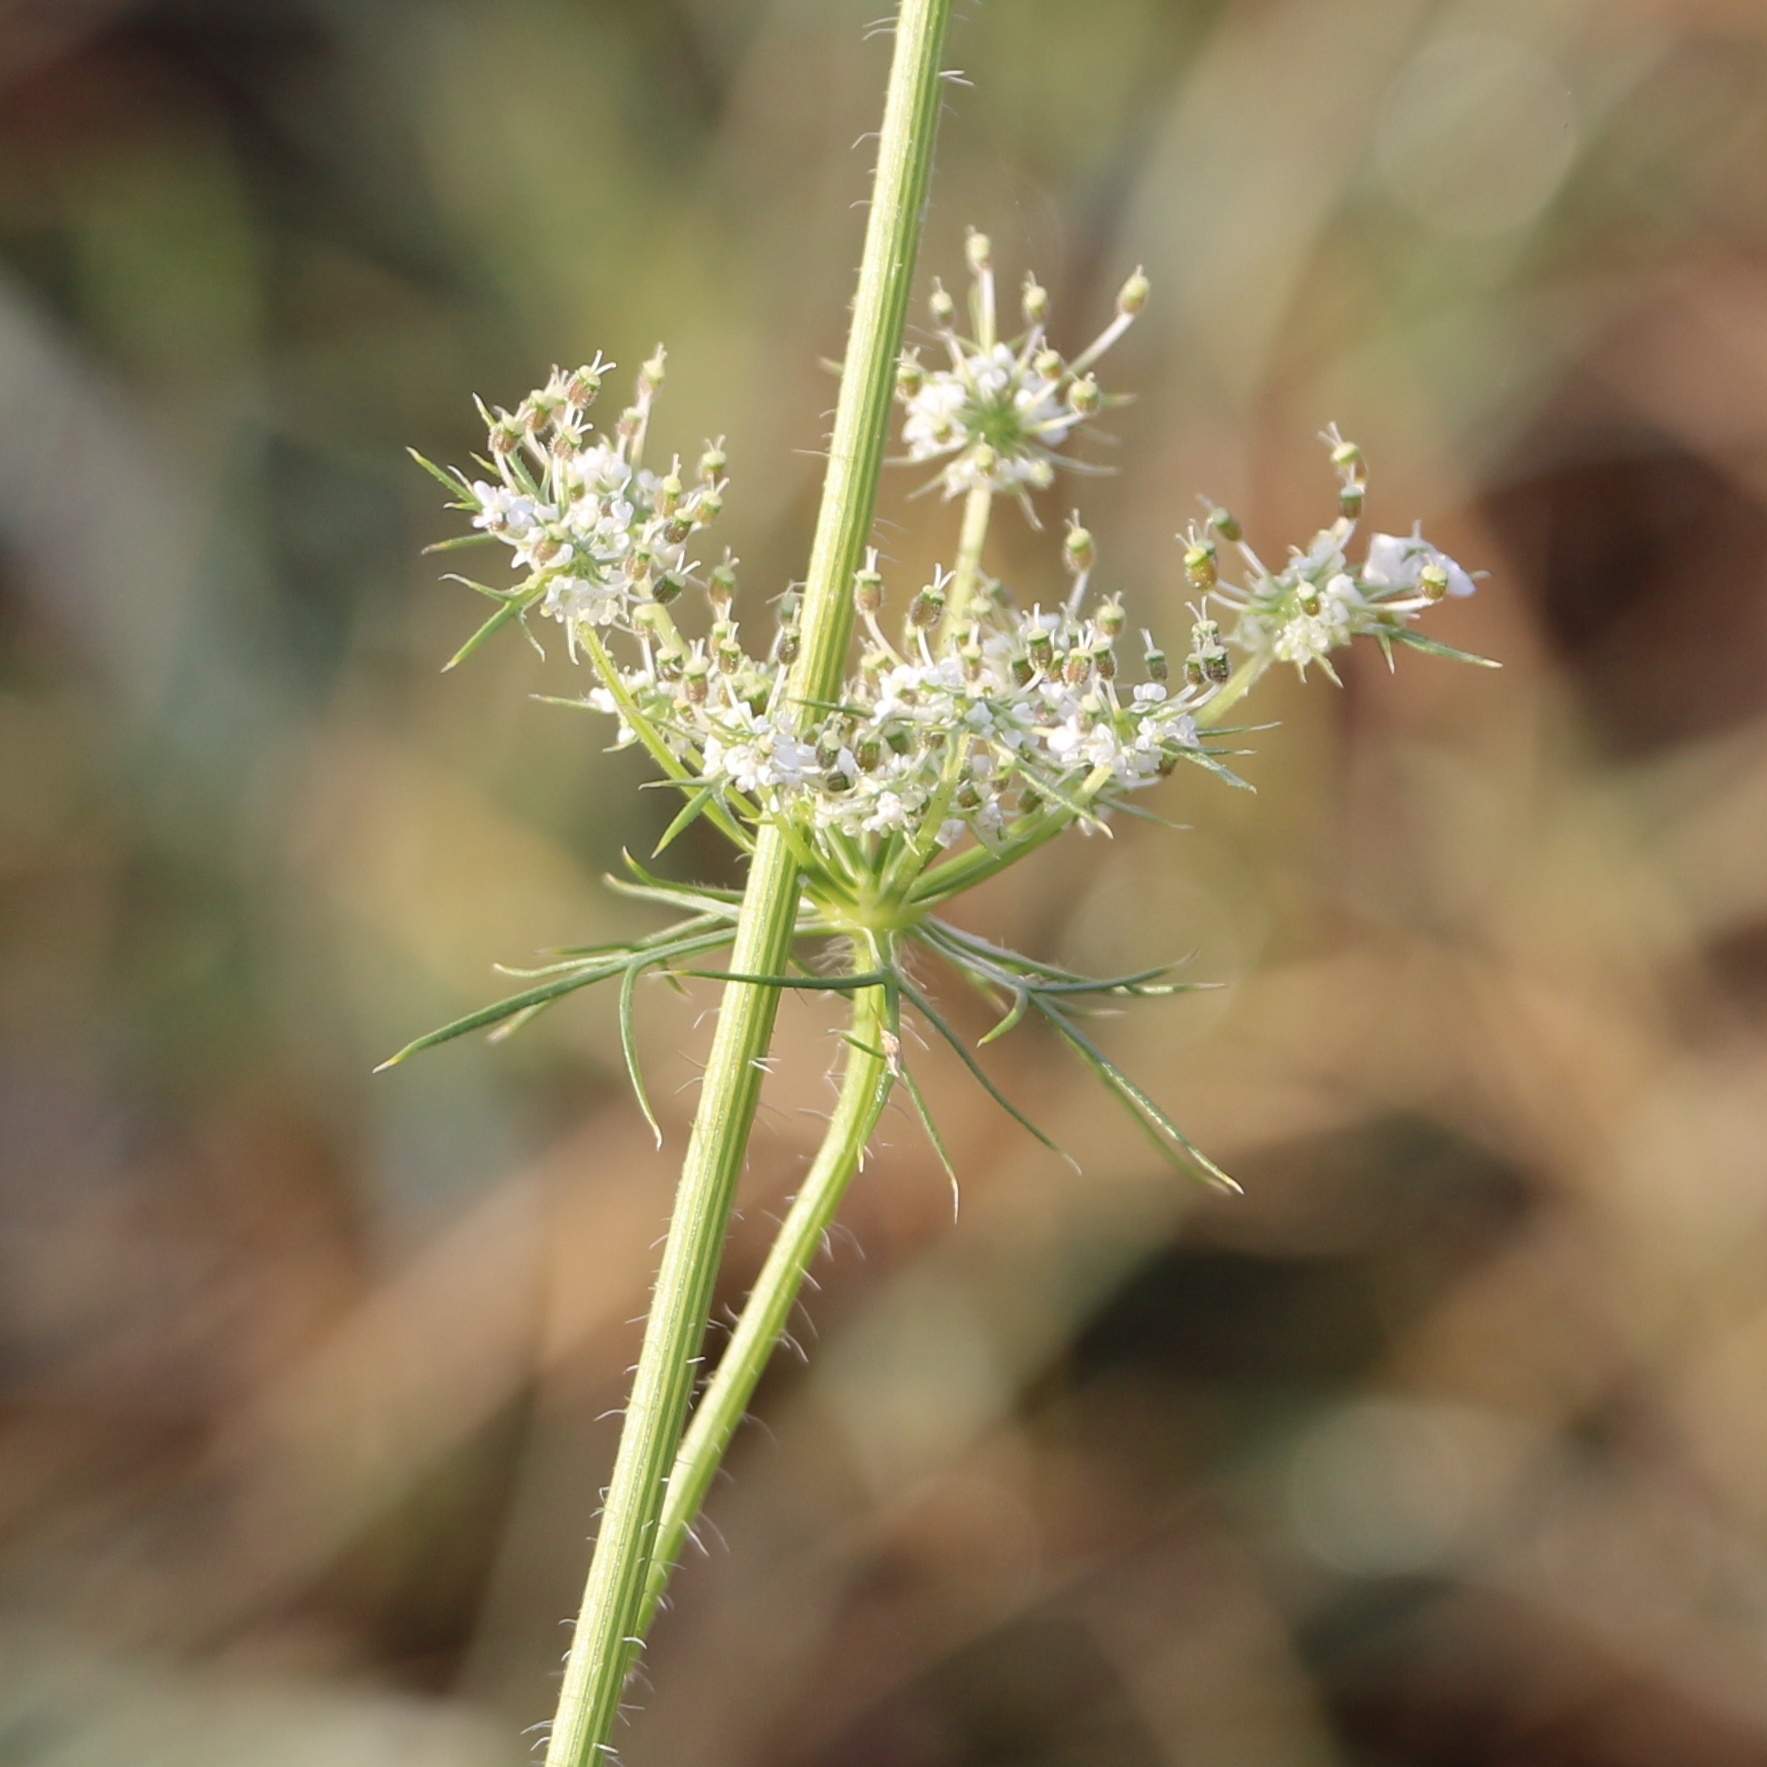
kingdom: Plantae
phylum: Tracheophyta
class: Magnoliopsida
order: Apiales
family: Apiaceae
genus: Daucus
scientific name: Daucus carota
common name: Wild carrot
